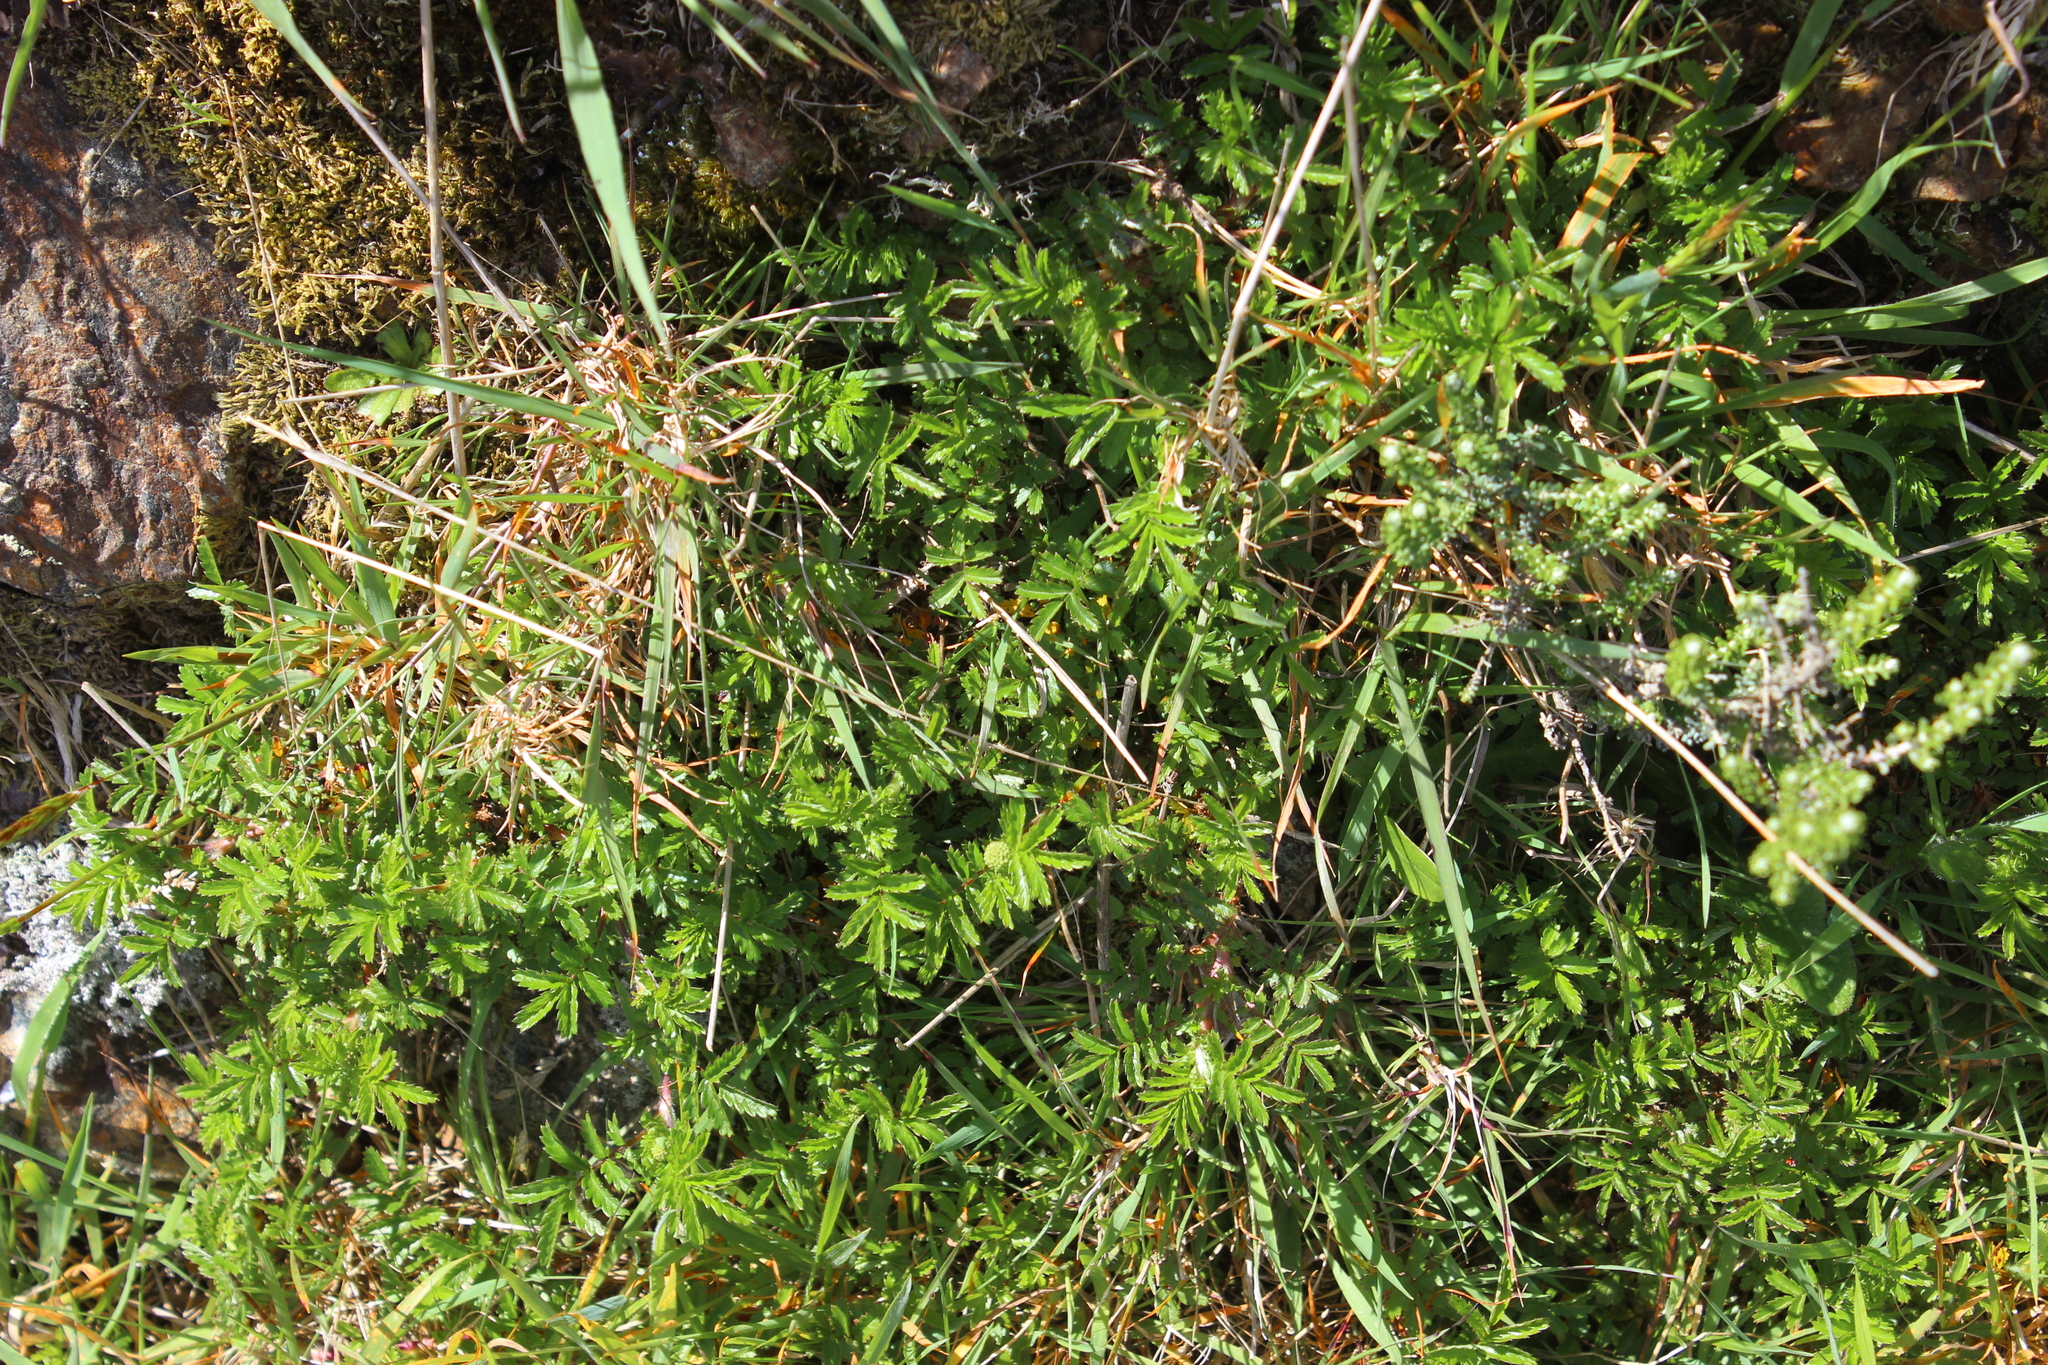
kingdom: Plantae
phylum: Tracheophyta
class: Magnoliopsida
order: Rosales
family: Rosaceae
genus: Acaena
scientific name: Acaena novae-zelandiae
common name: Pirri-pirri-bur
